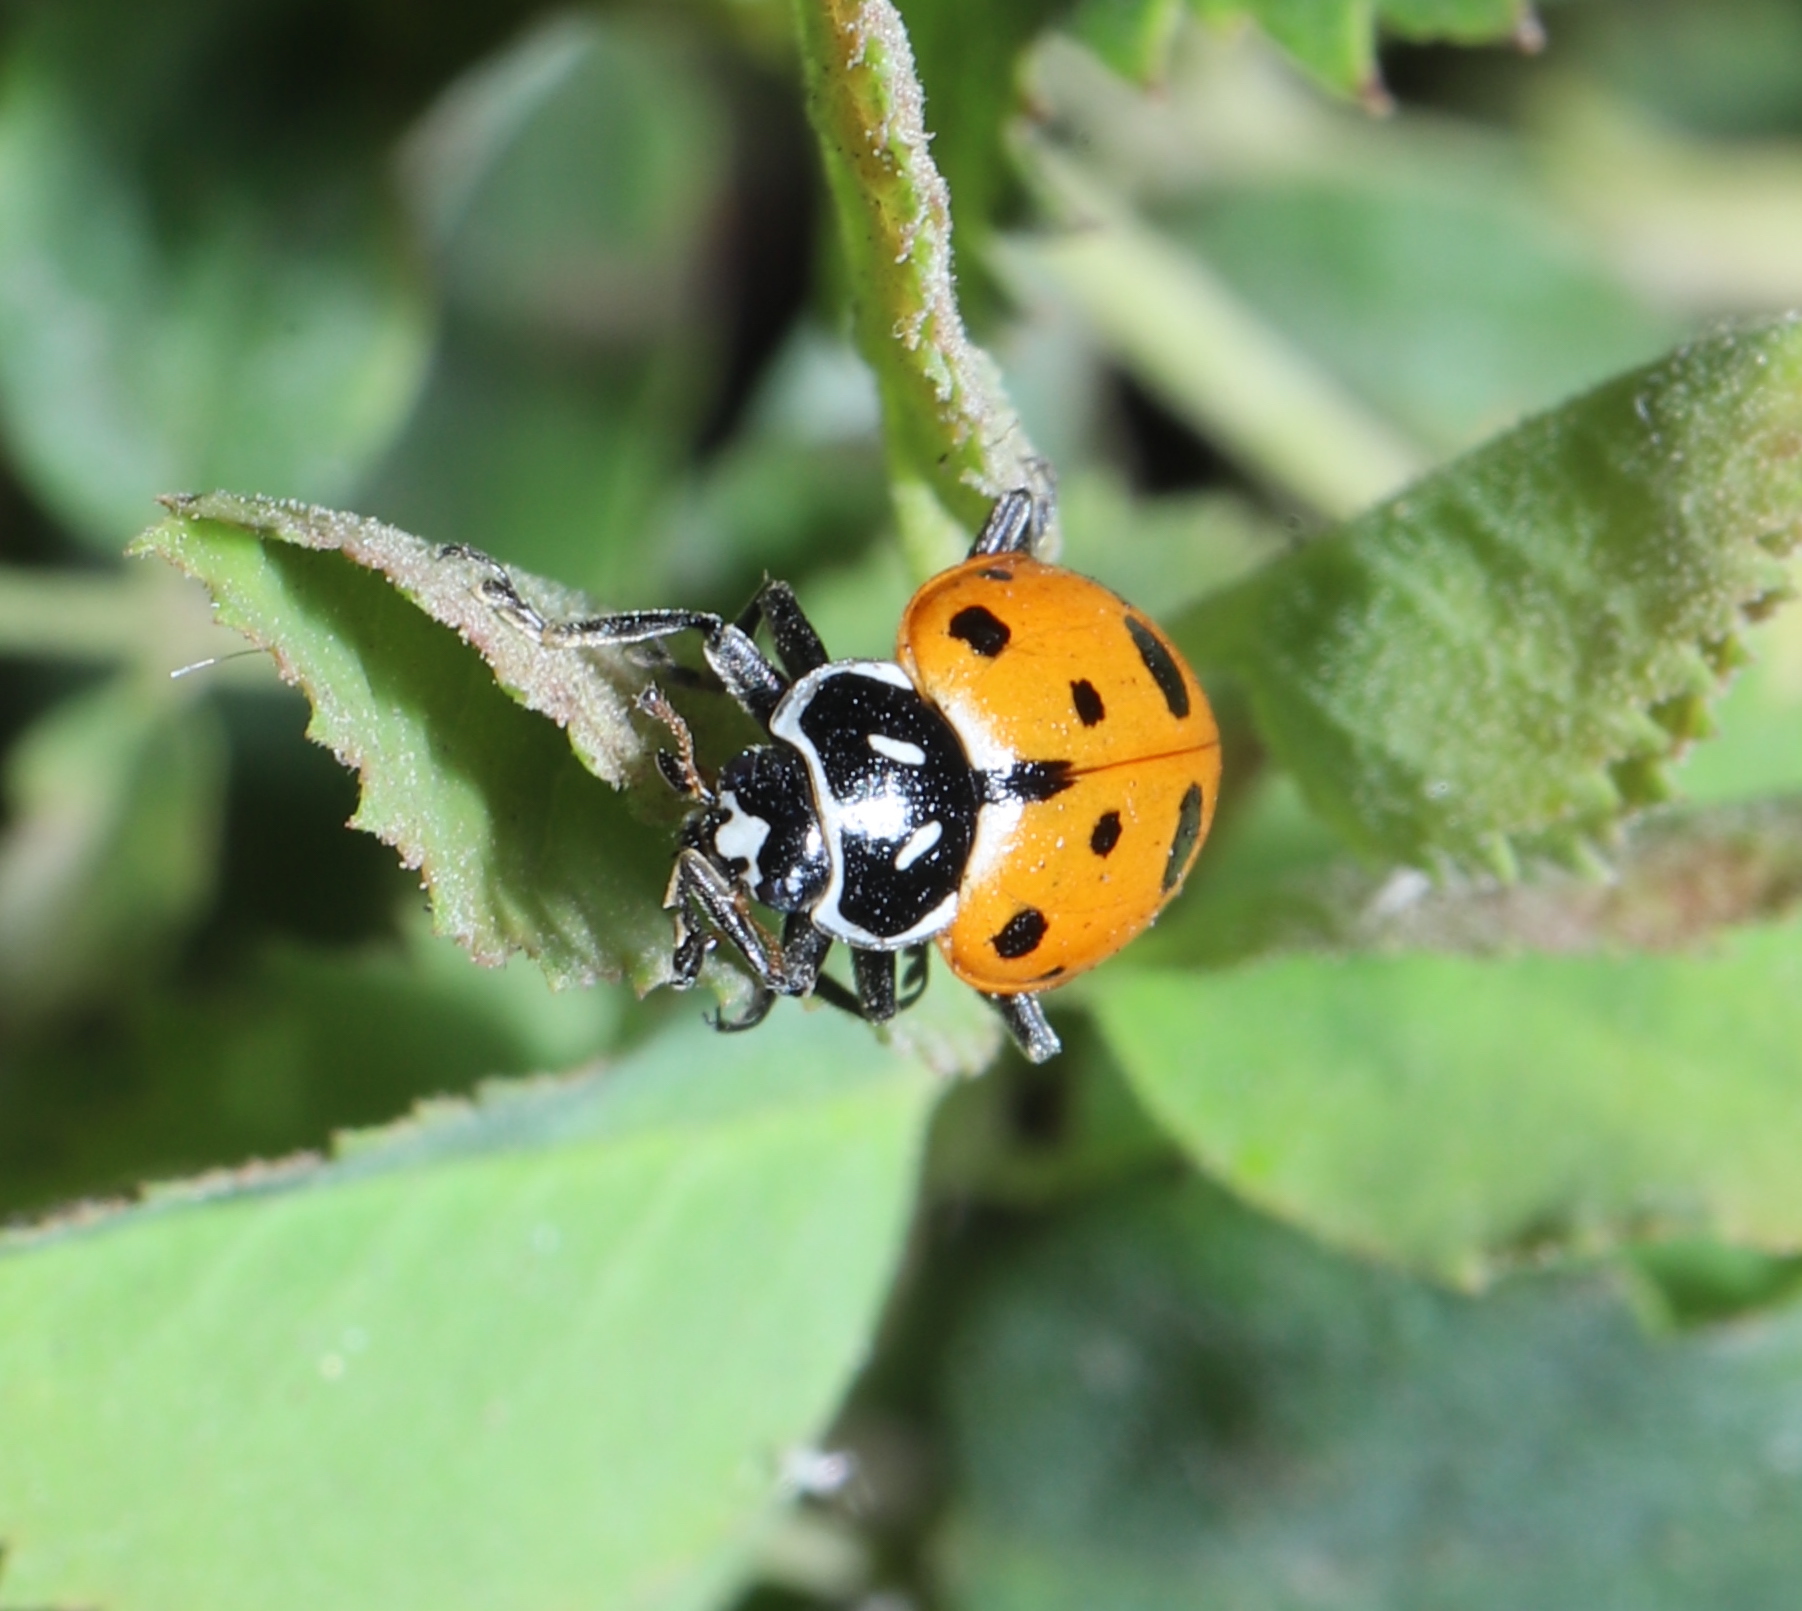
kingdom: Animalia
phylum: Arthropoda
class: Insecta
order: Coleoptera
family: Coccinellidae
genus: Hippodamia
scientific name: Hippodamia convergens
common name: Convergent lady beetle
